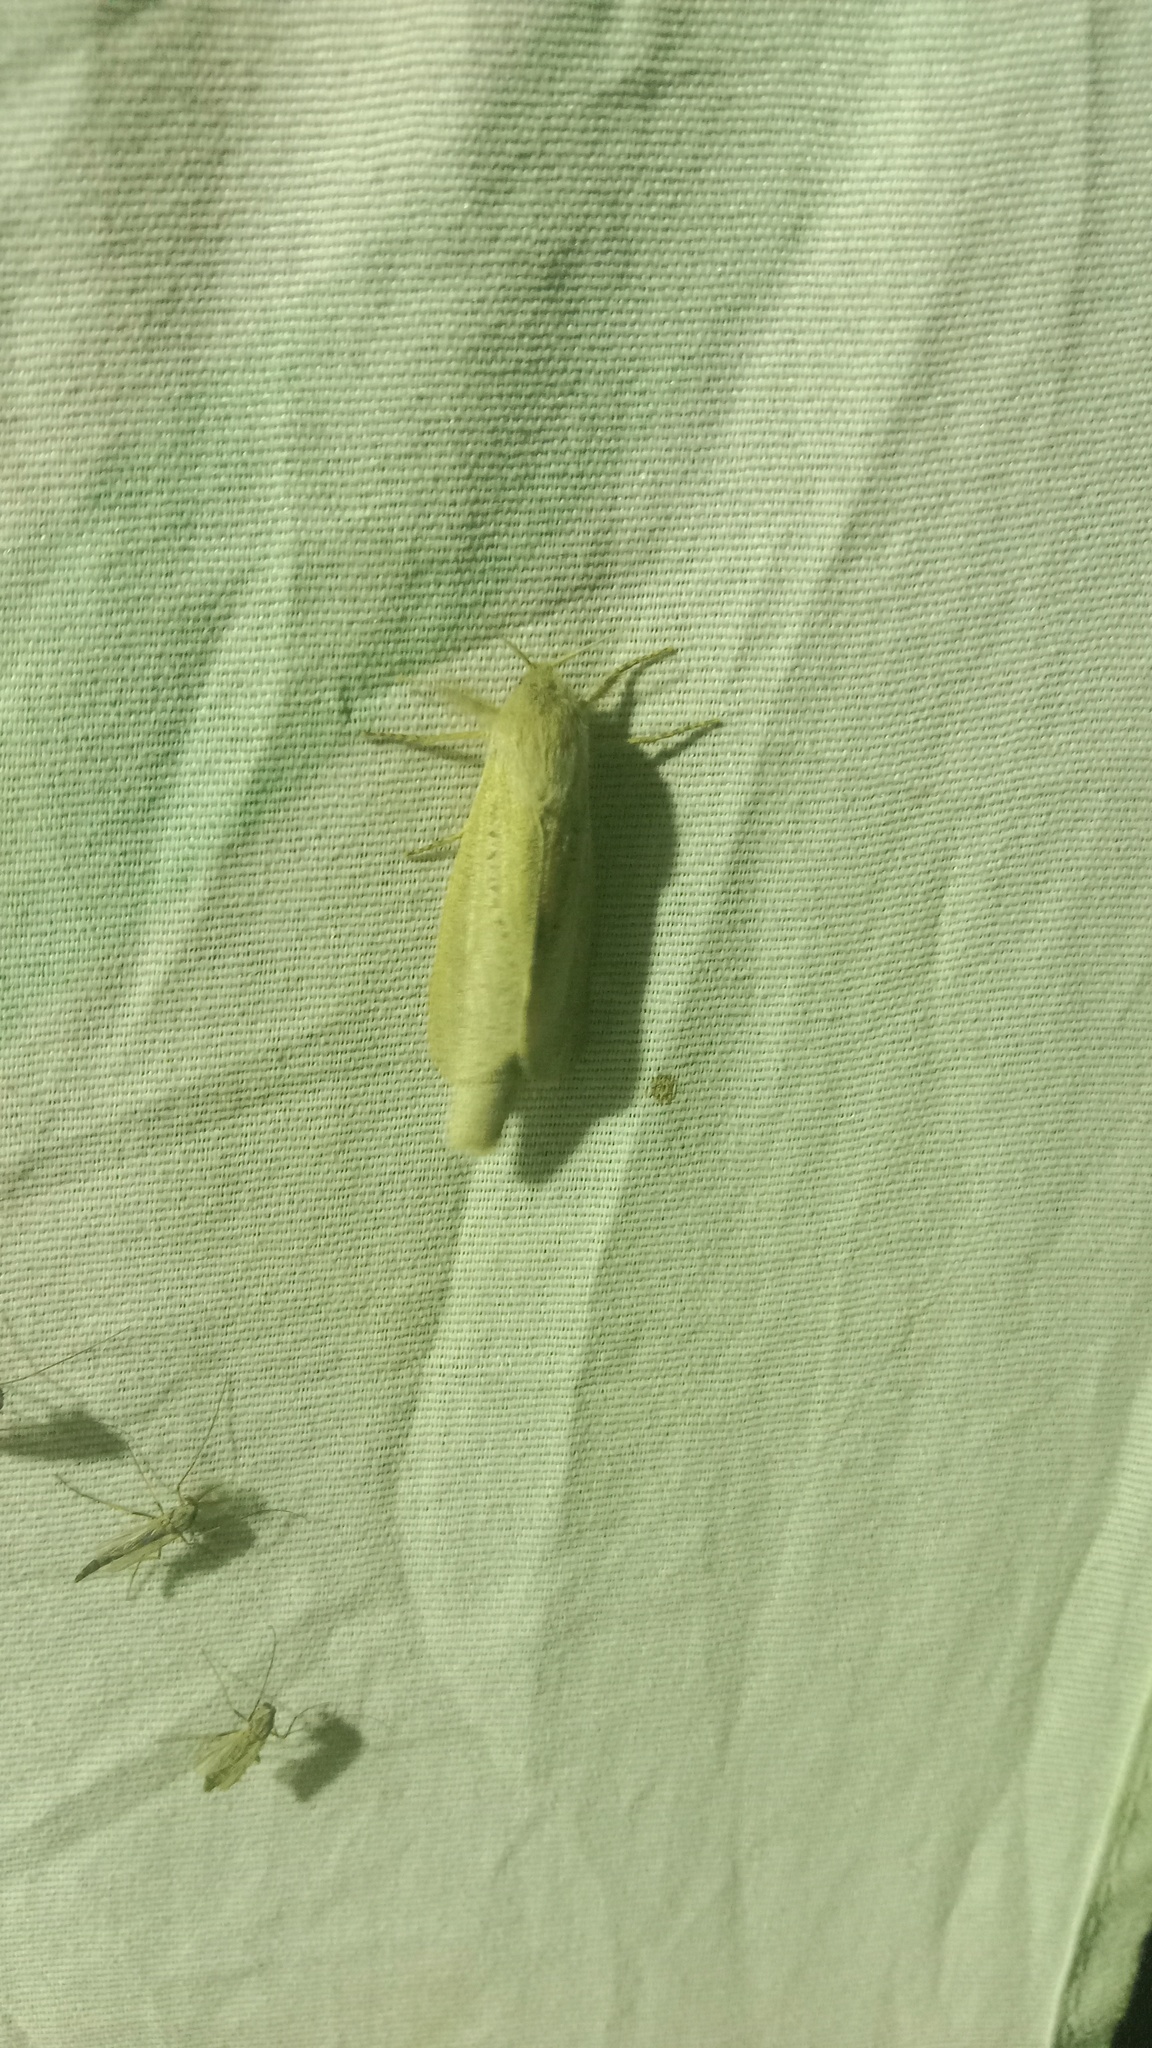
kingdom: Animalia
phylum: Arthropoda
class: Insecta
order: Lepidoptera
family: Cossidae
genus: Phragmataecia
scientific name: Phragmataecia castaneae
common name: Reed leopard
